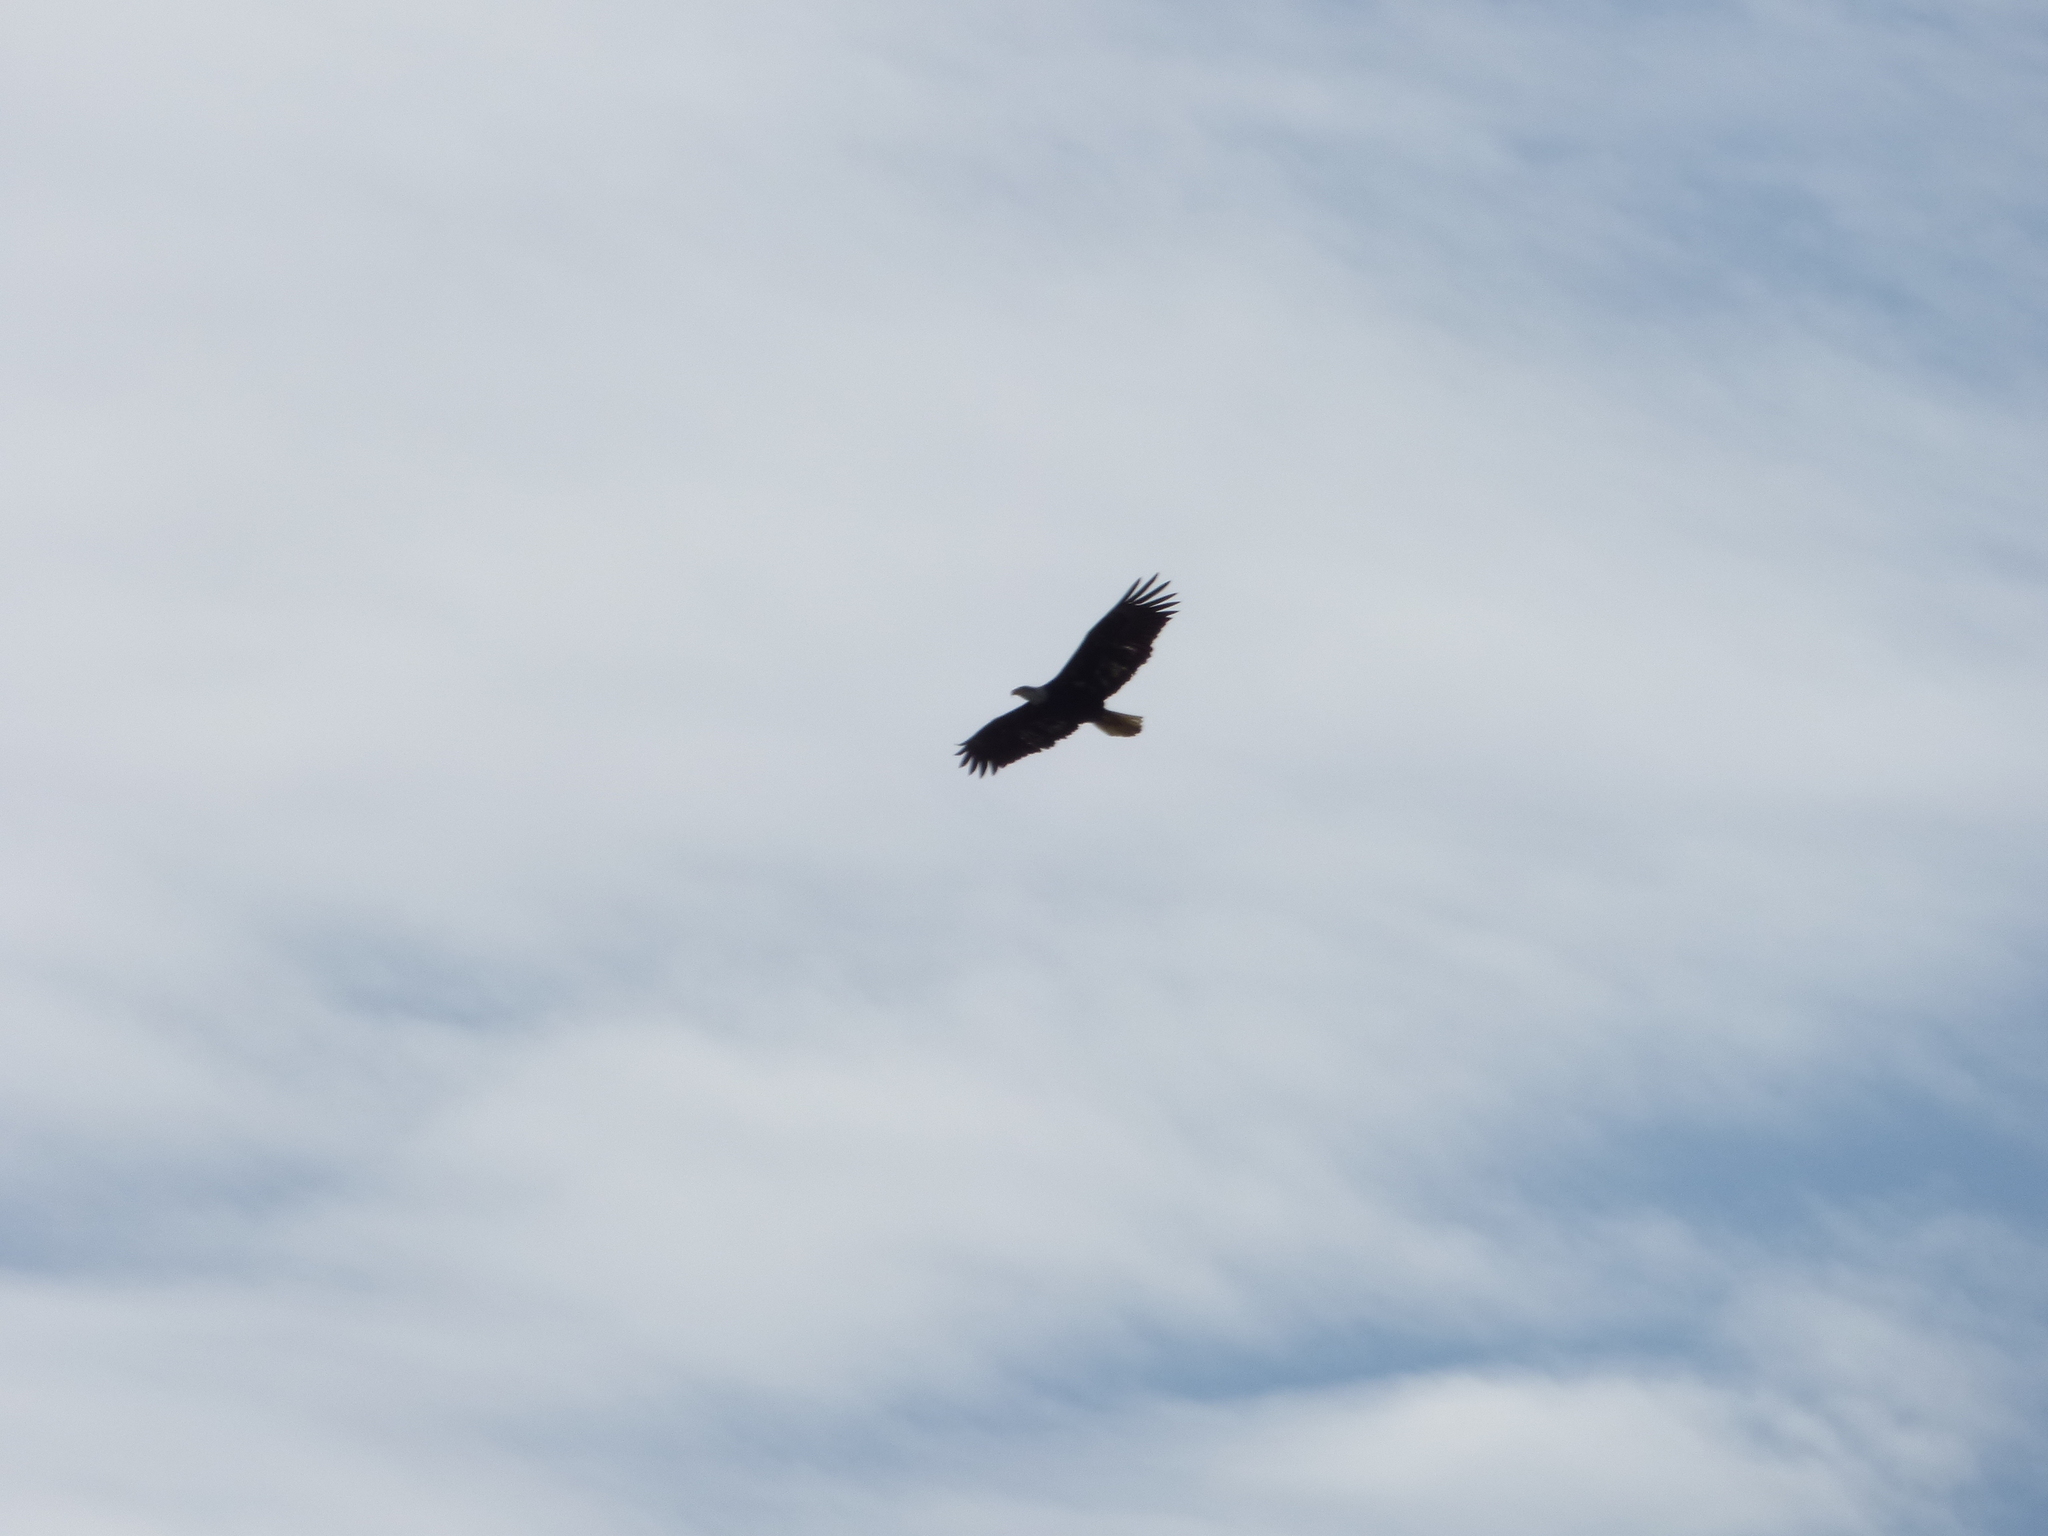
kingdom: Animalia
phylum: Chordata
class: Aves
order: Accipitriformes
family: Accipitridae
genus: Haliaeetus
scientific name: Haliaeetus leucocephalus
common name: Bald eagle
